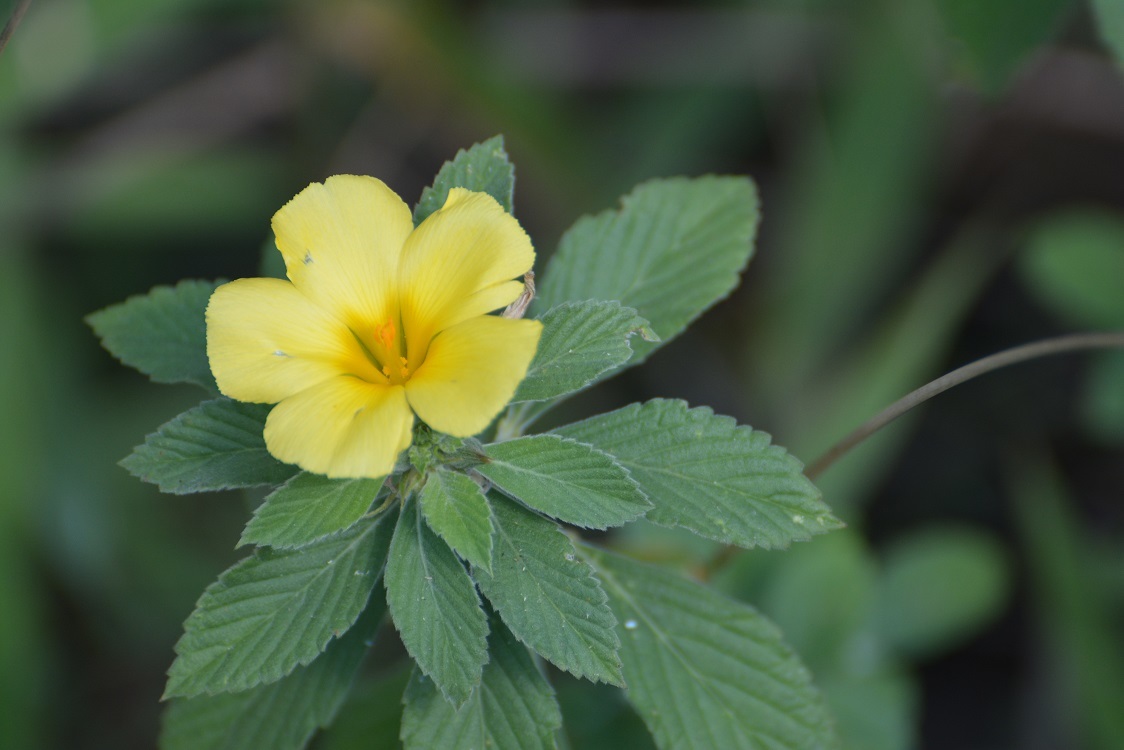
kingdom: Plantae
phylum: Tracheophyta
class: Magnoliopsida
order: Malpighiales
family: Turneraceae
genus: Turnera
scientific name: Turnera ulmifolia
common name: Ramgoat dashalong
